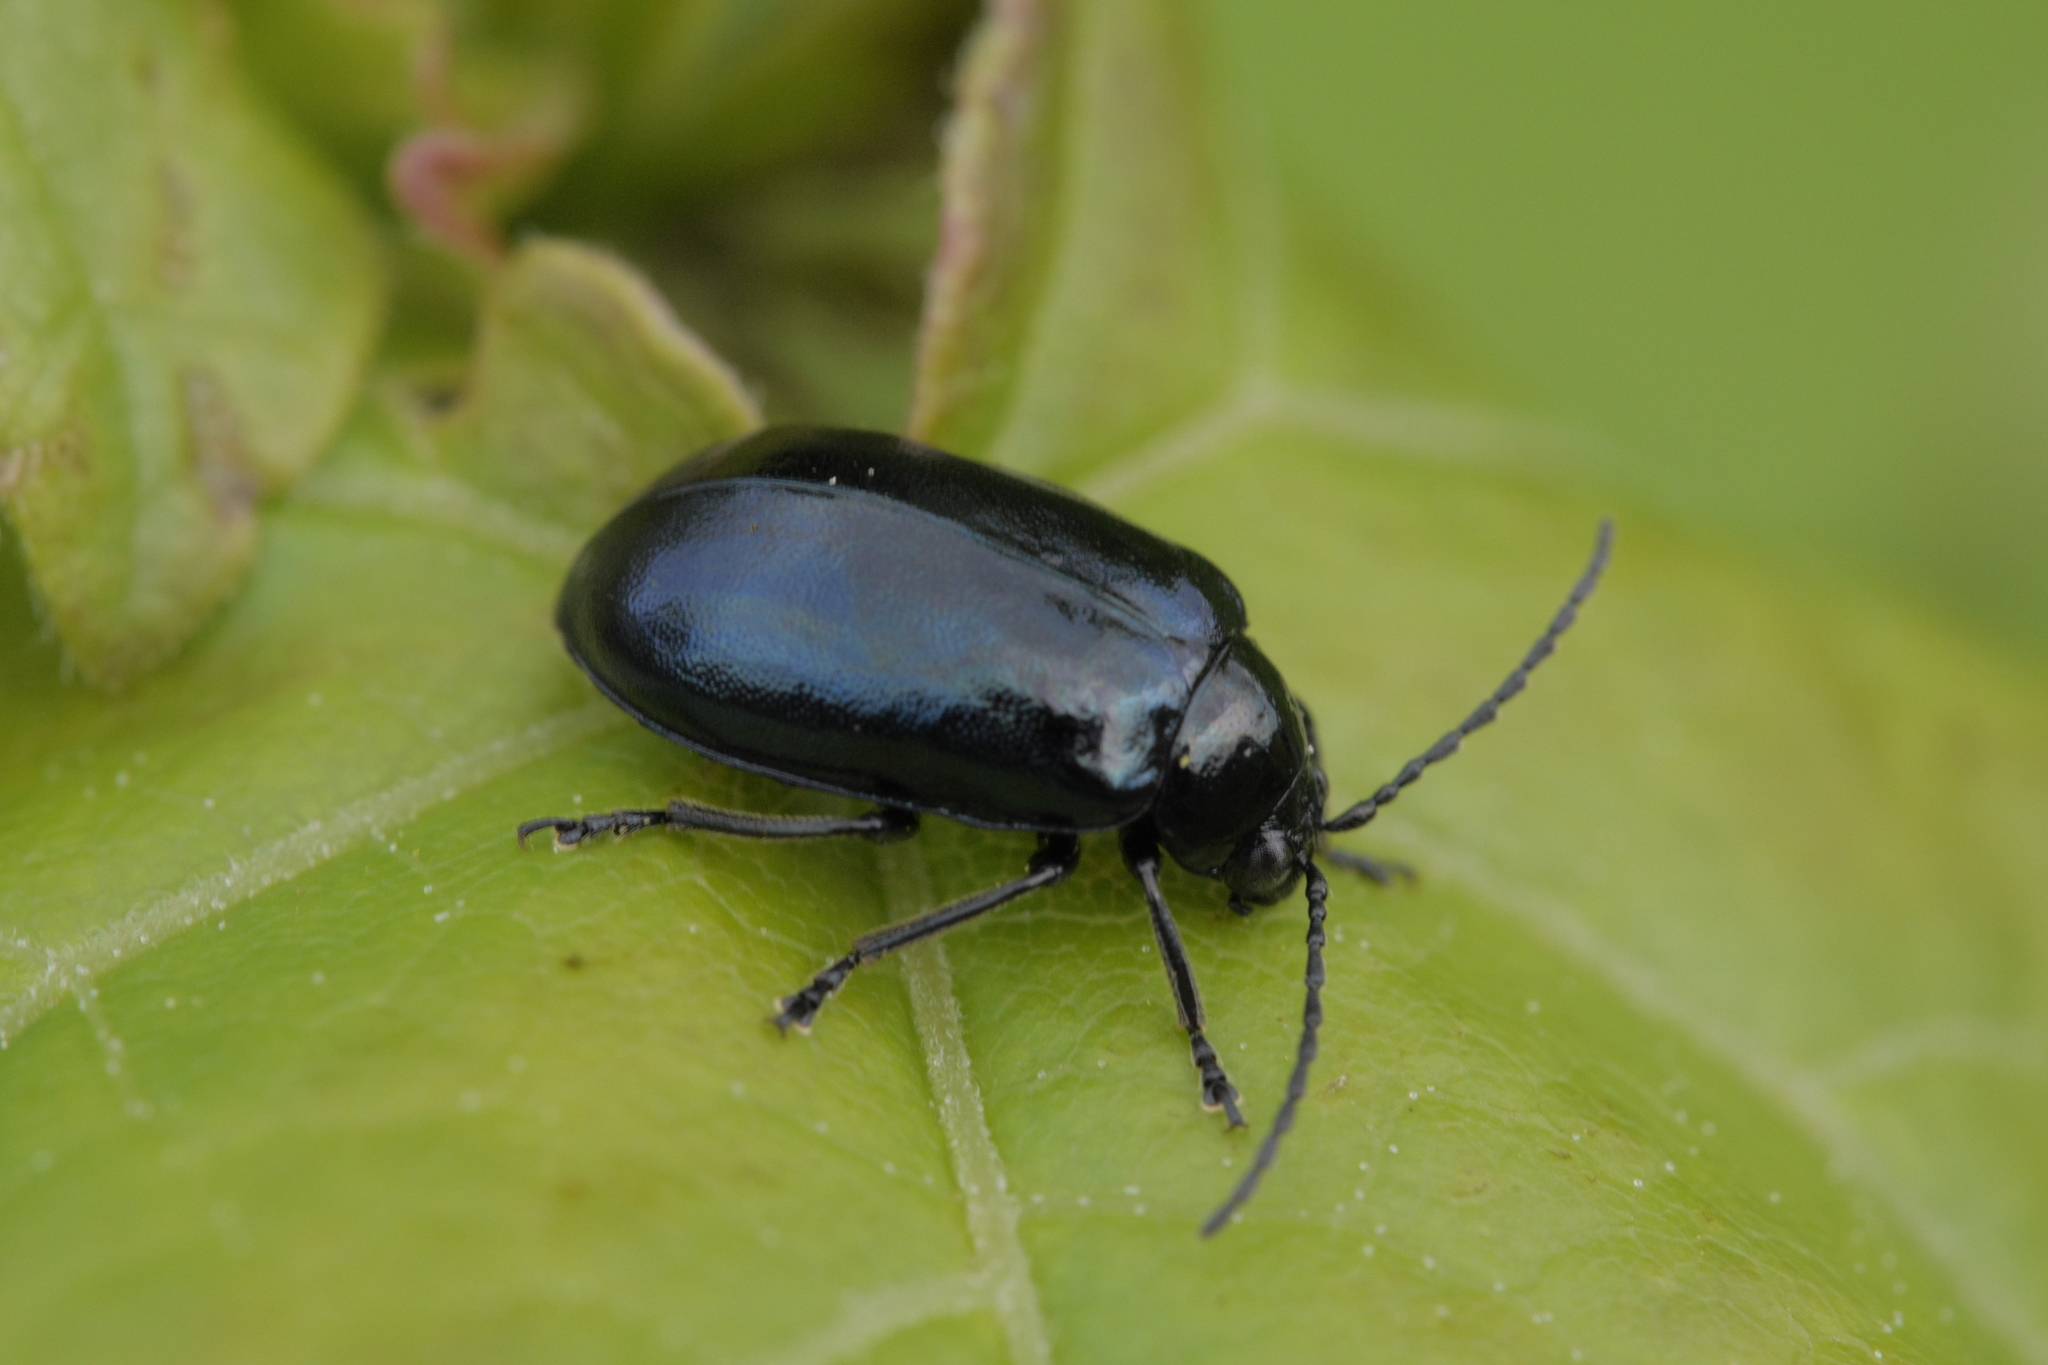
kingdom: Animalia
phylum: Arthropoda
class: Insecta
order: Coleoptera
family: Chrysomelidae
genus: Agelastica
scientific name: Agelastica alni
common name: Alder leaf beetle
